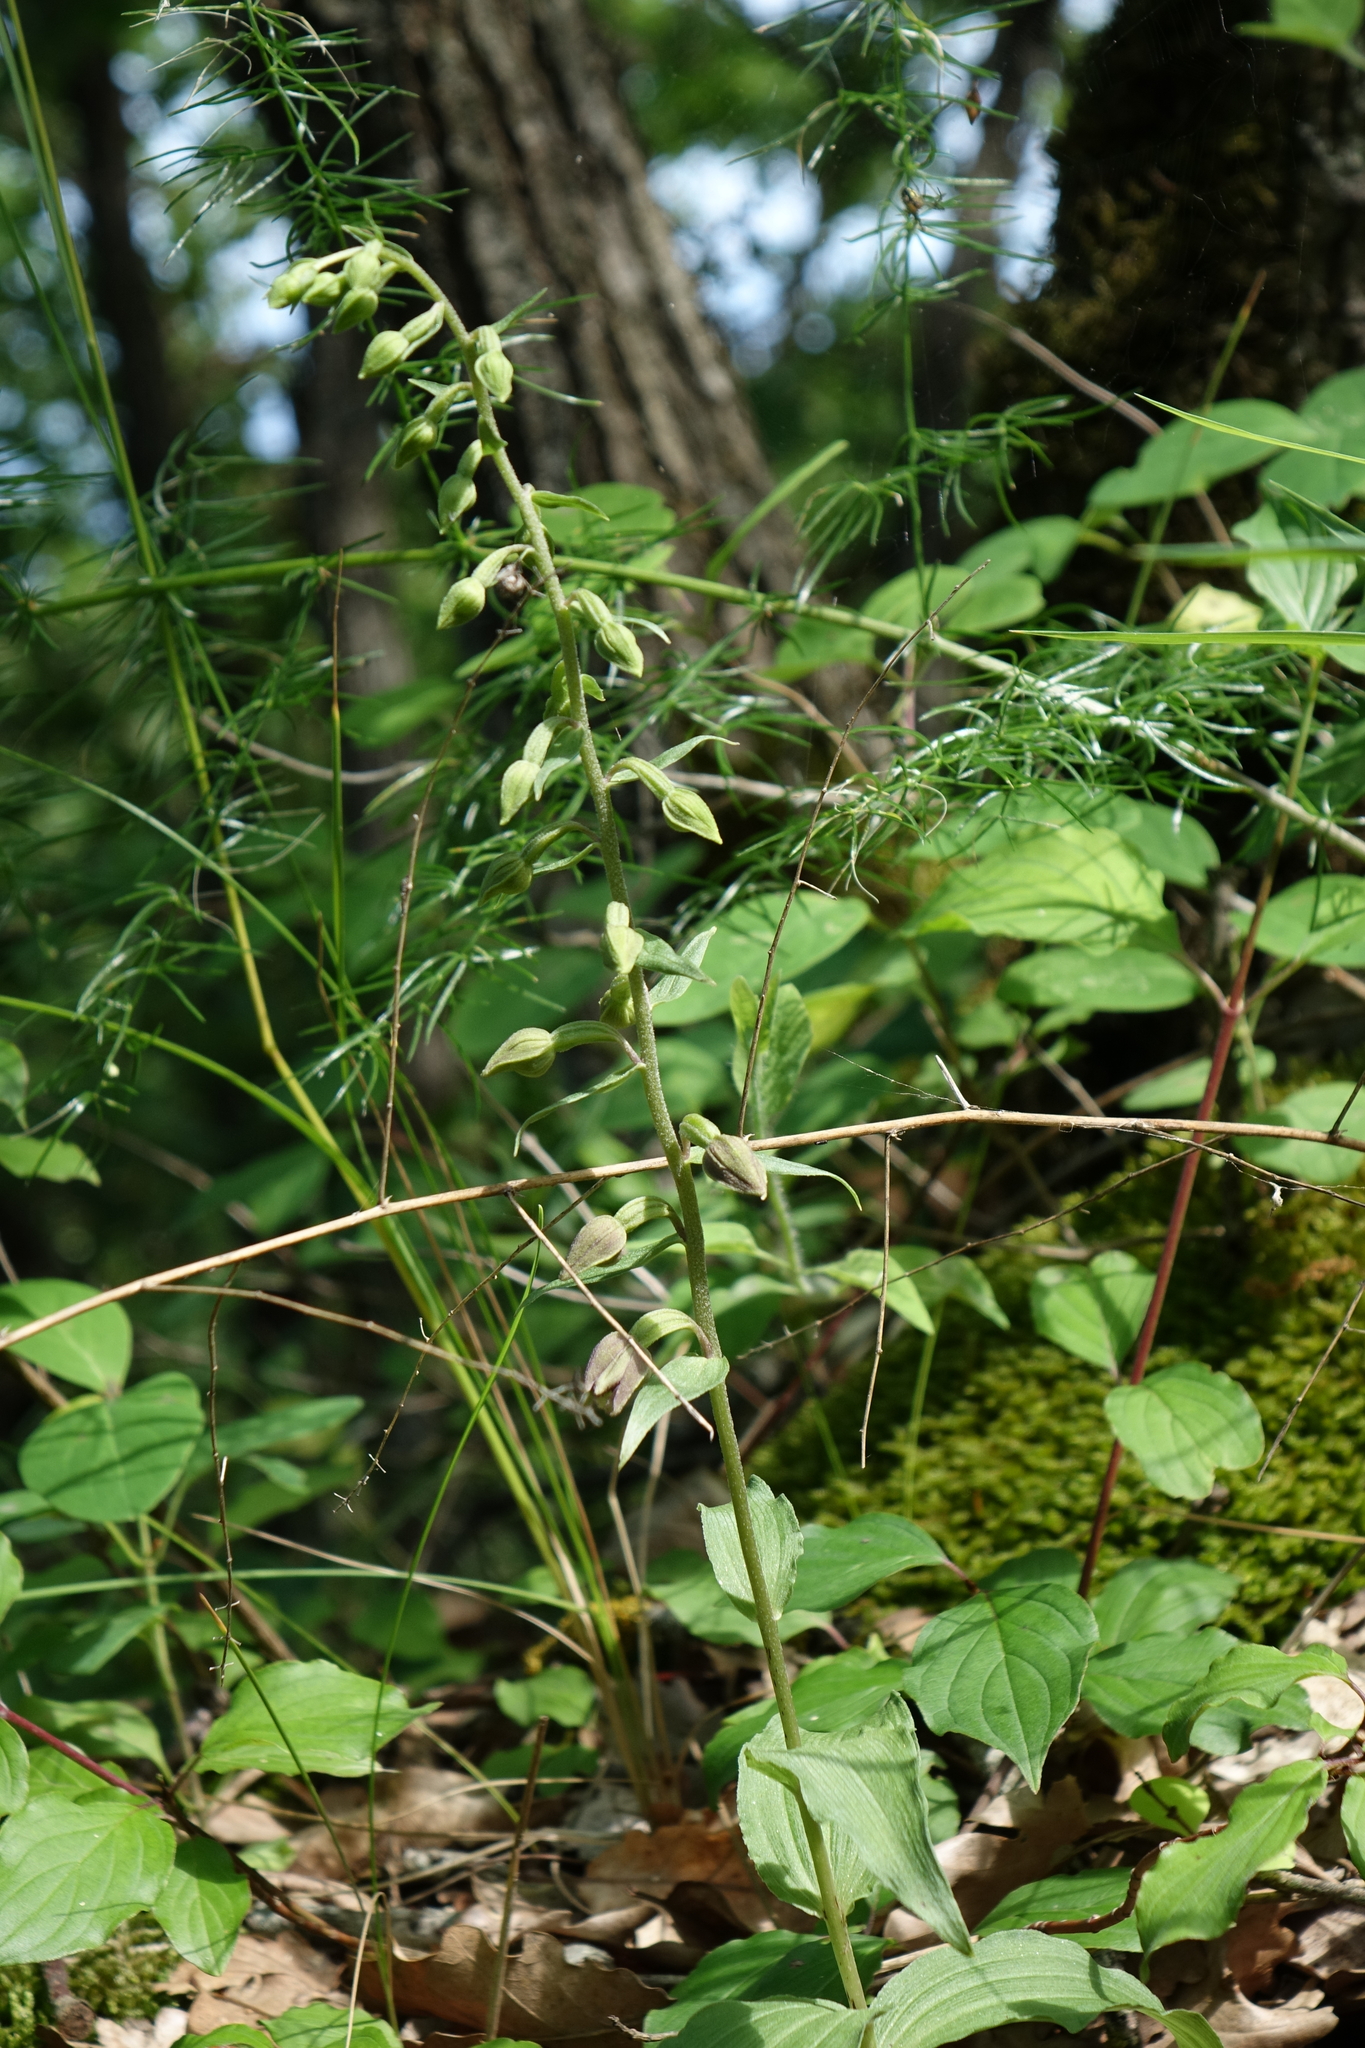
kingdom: Plantae
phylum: Tracheophyta
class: Liliopsida
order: Asparagales
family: Orchidaceae
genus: Epipactis
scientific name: Epipactis helleborine
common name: Broad-leaved helleborine
